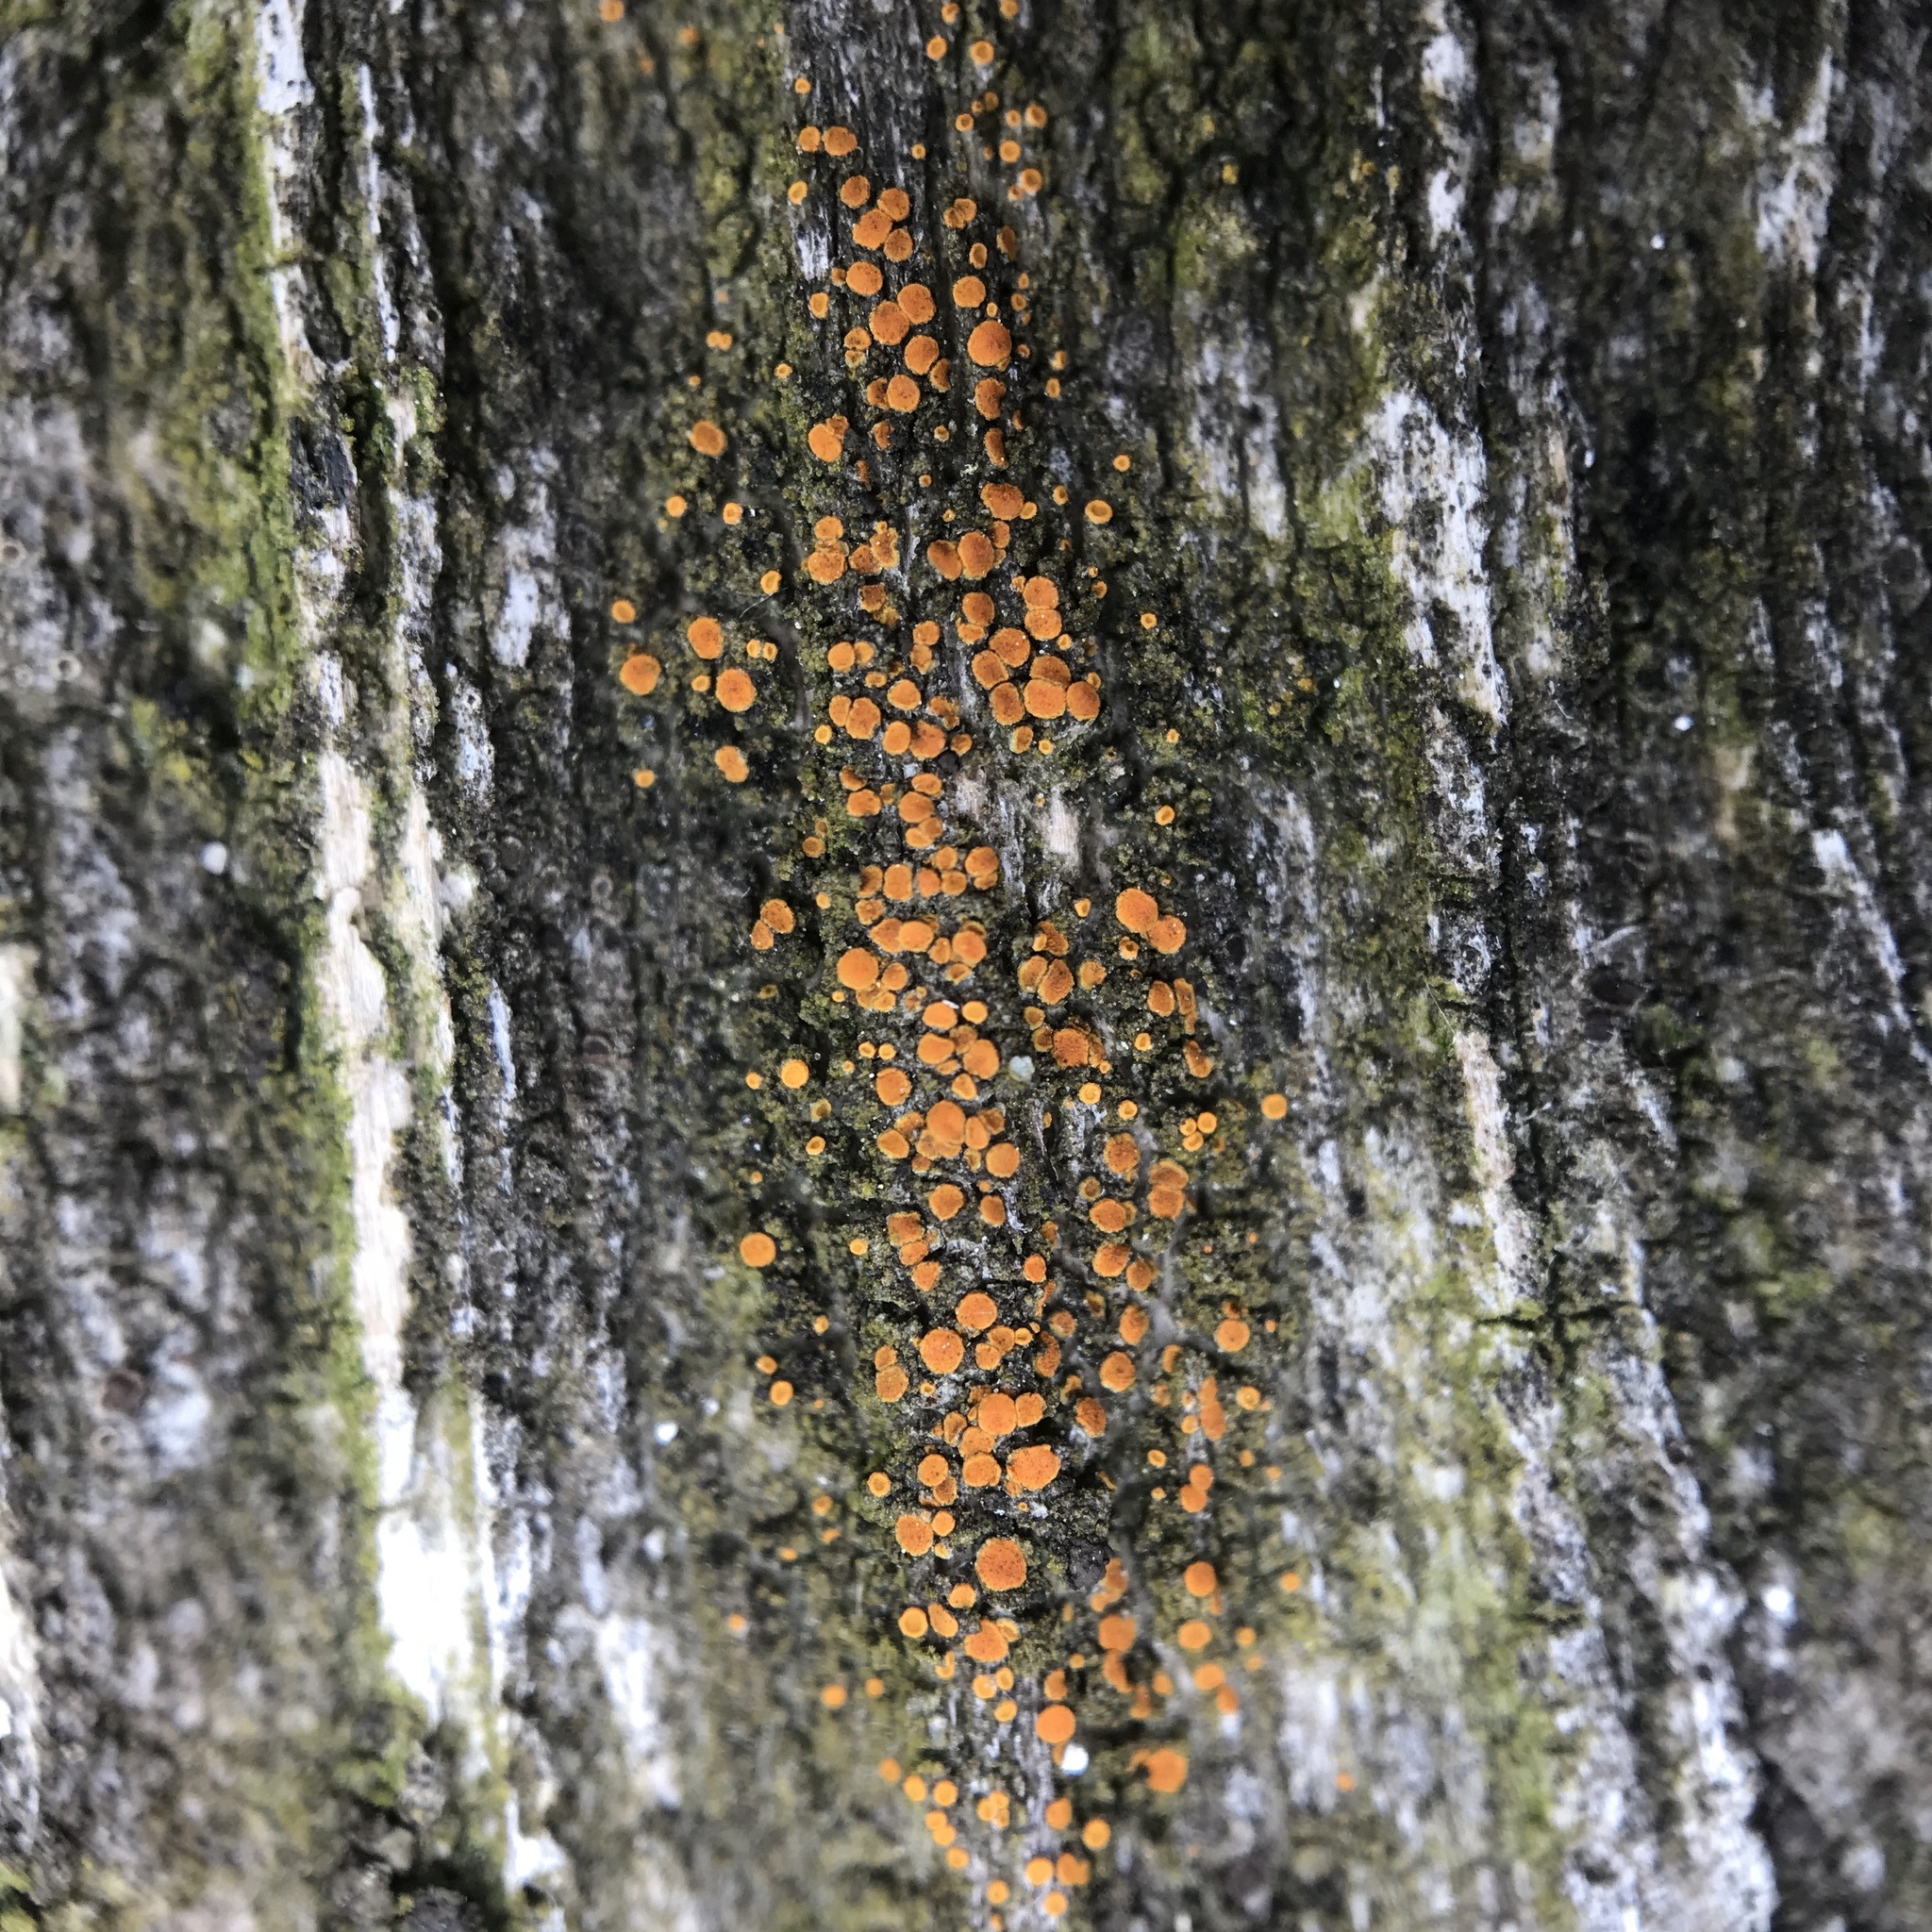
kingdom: Fungi
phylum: Ascomycota
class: Lecanoromycetes
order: Teloschistales
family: Teloschistaceae
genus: Athallia
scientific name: Athallia holocarpa
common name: Firedot lichen
